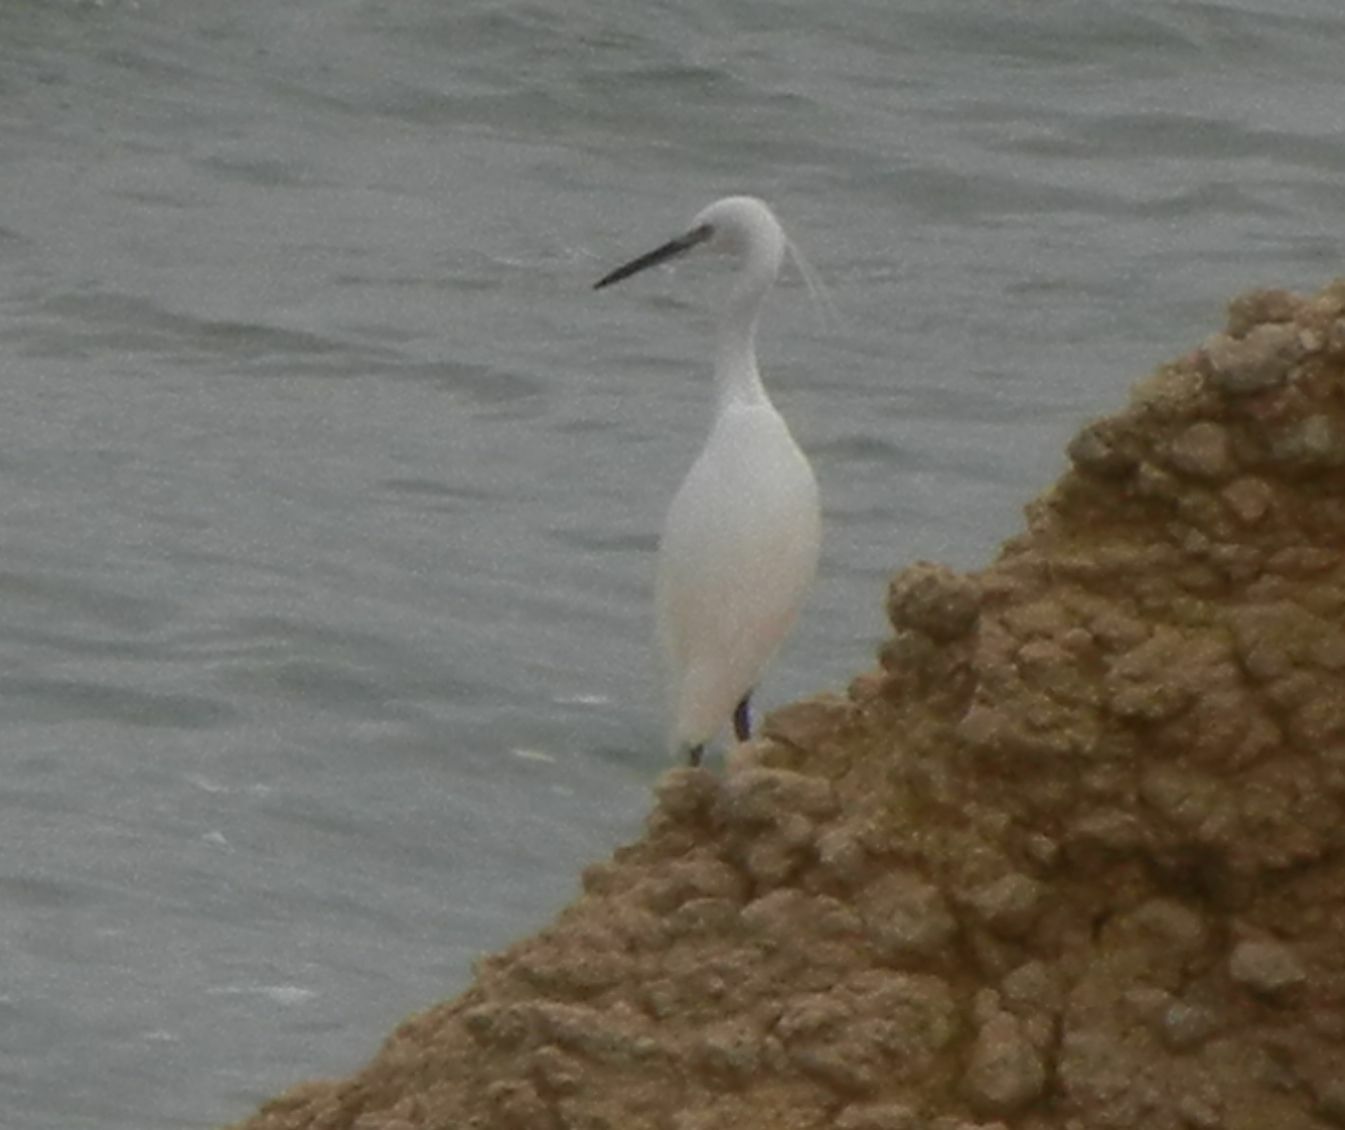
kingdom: Animalia
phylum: Chordata
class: Aves
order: Pelecaniformes
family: Ardeidae
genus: Egretta
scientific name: Egretta garzetta
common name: Little egret
